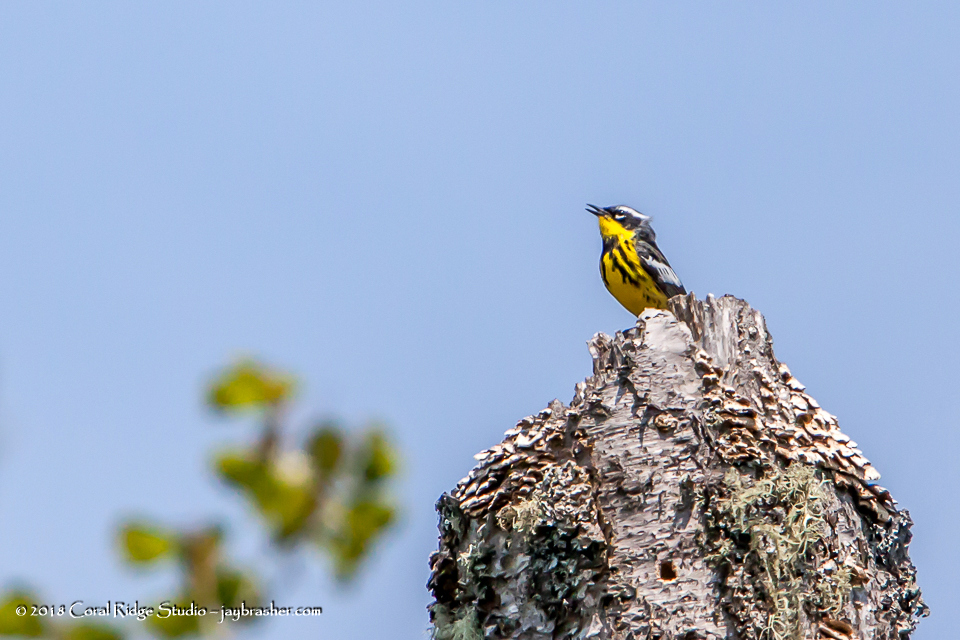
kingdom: Animalia
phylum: Chordata
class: Aves
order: Passeriformes
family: Parulidae
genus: Setophaga
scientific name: Setophaga magnolia
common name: Magnolia warbler
